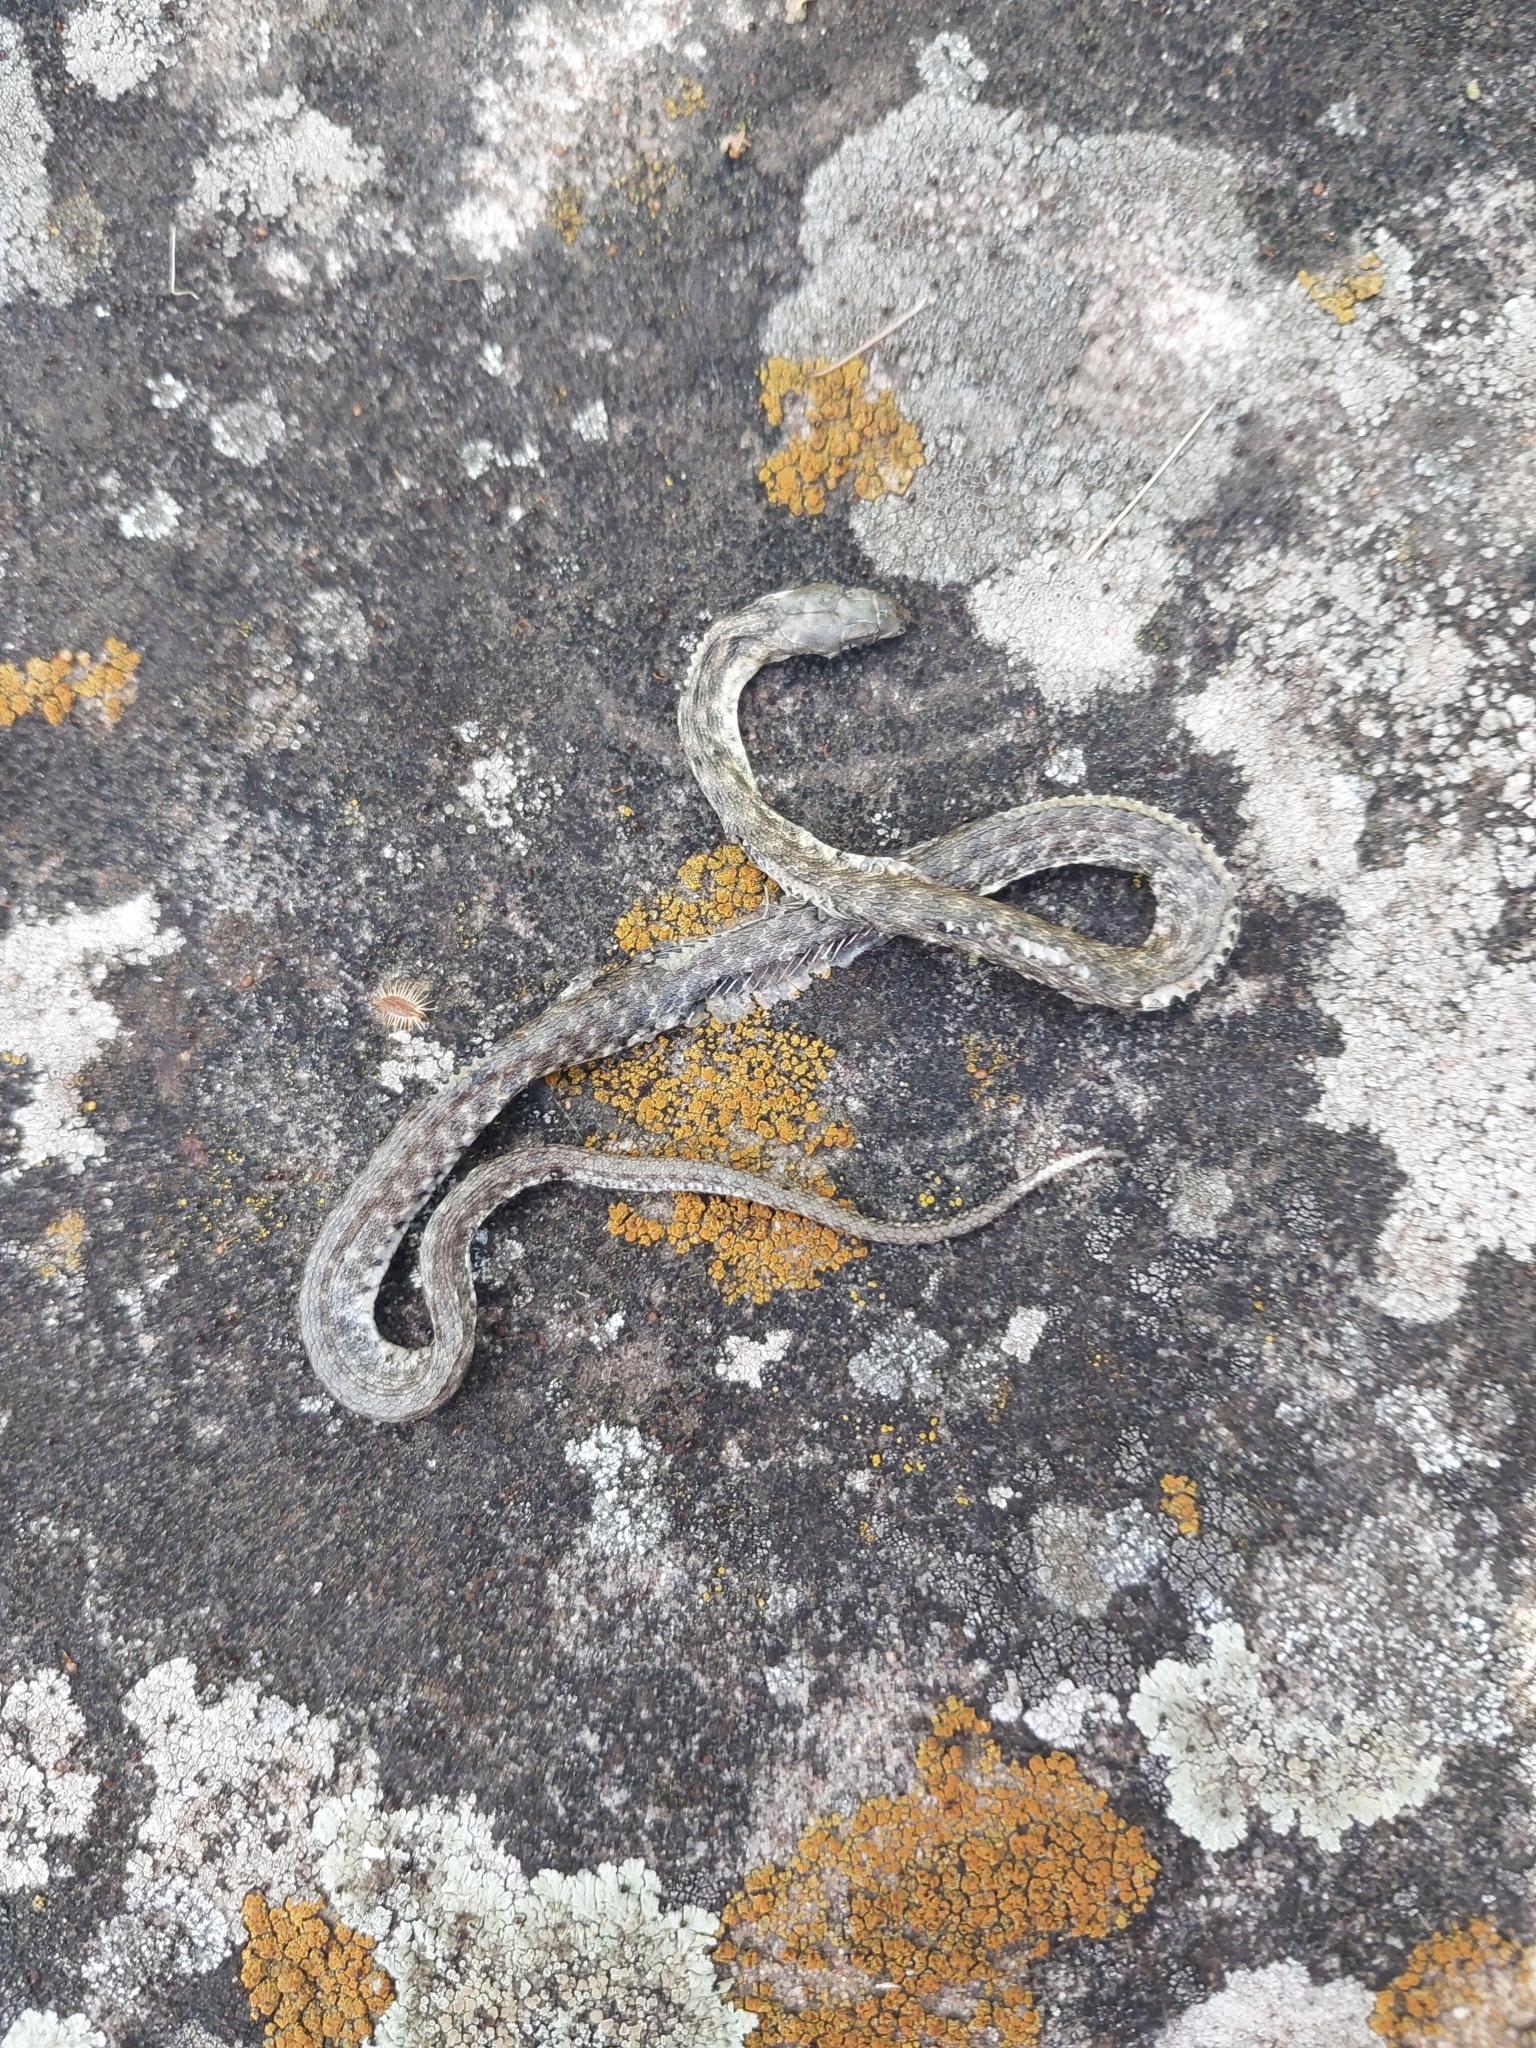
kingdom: Animalia
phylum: Chordata
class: Squamata
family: Colubridae
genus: Natrix
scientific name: Natrix tessellata
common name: Dice snake
